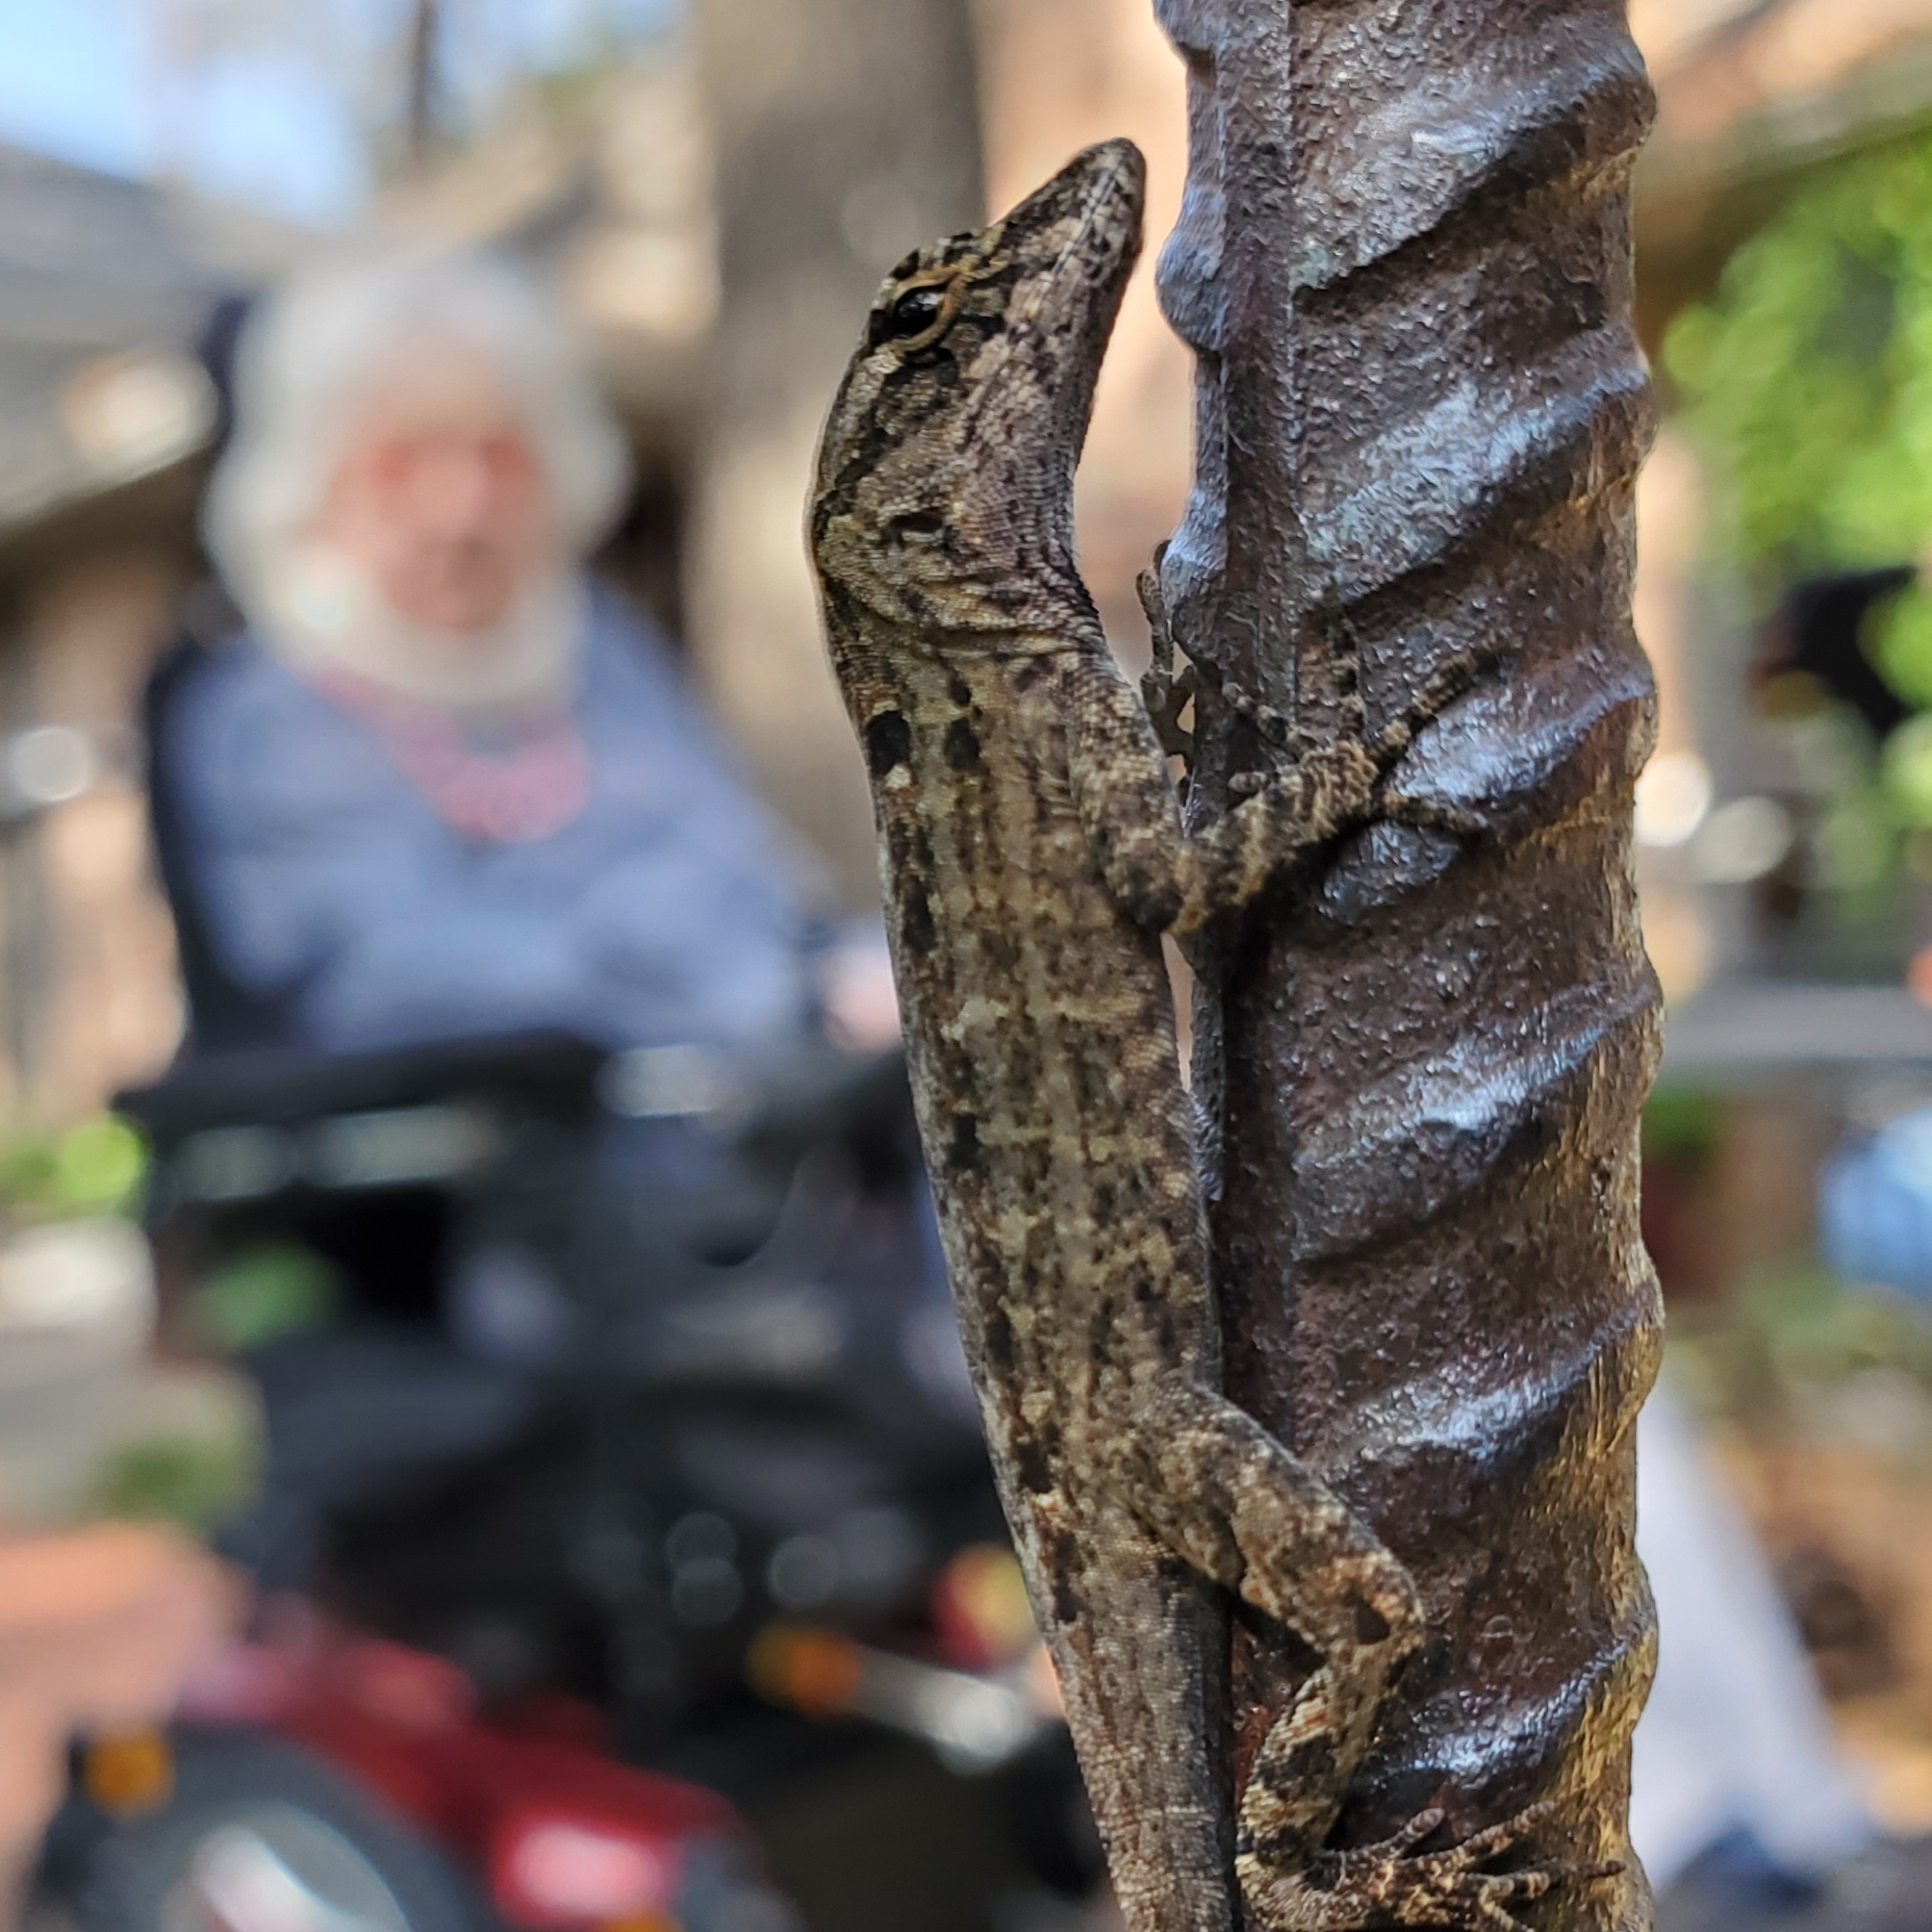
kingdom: Animalia
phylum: Chordata
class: Squamata
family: Dactyloidae
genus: Anolis
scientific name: Anolis sagrei
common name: Brown anole
